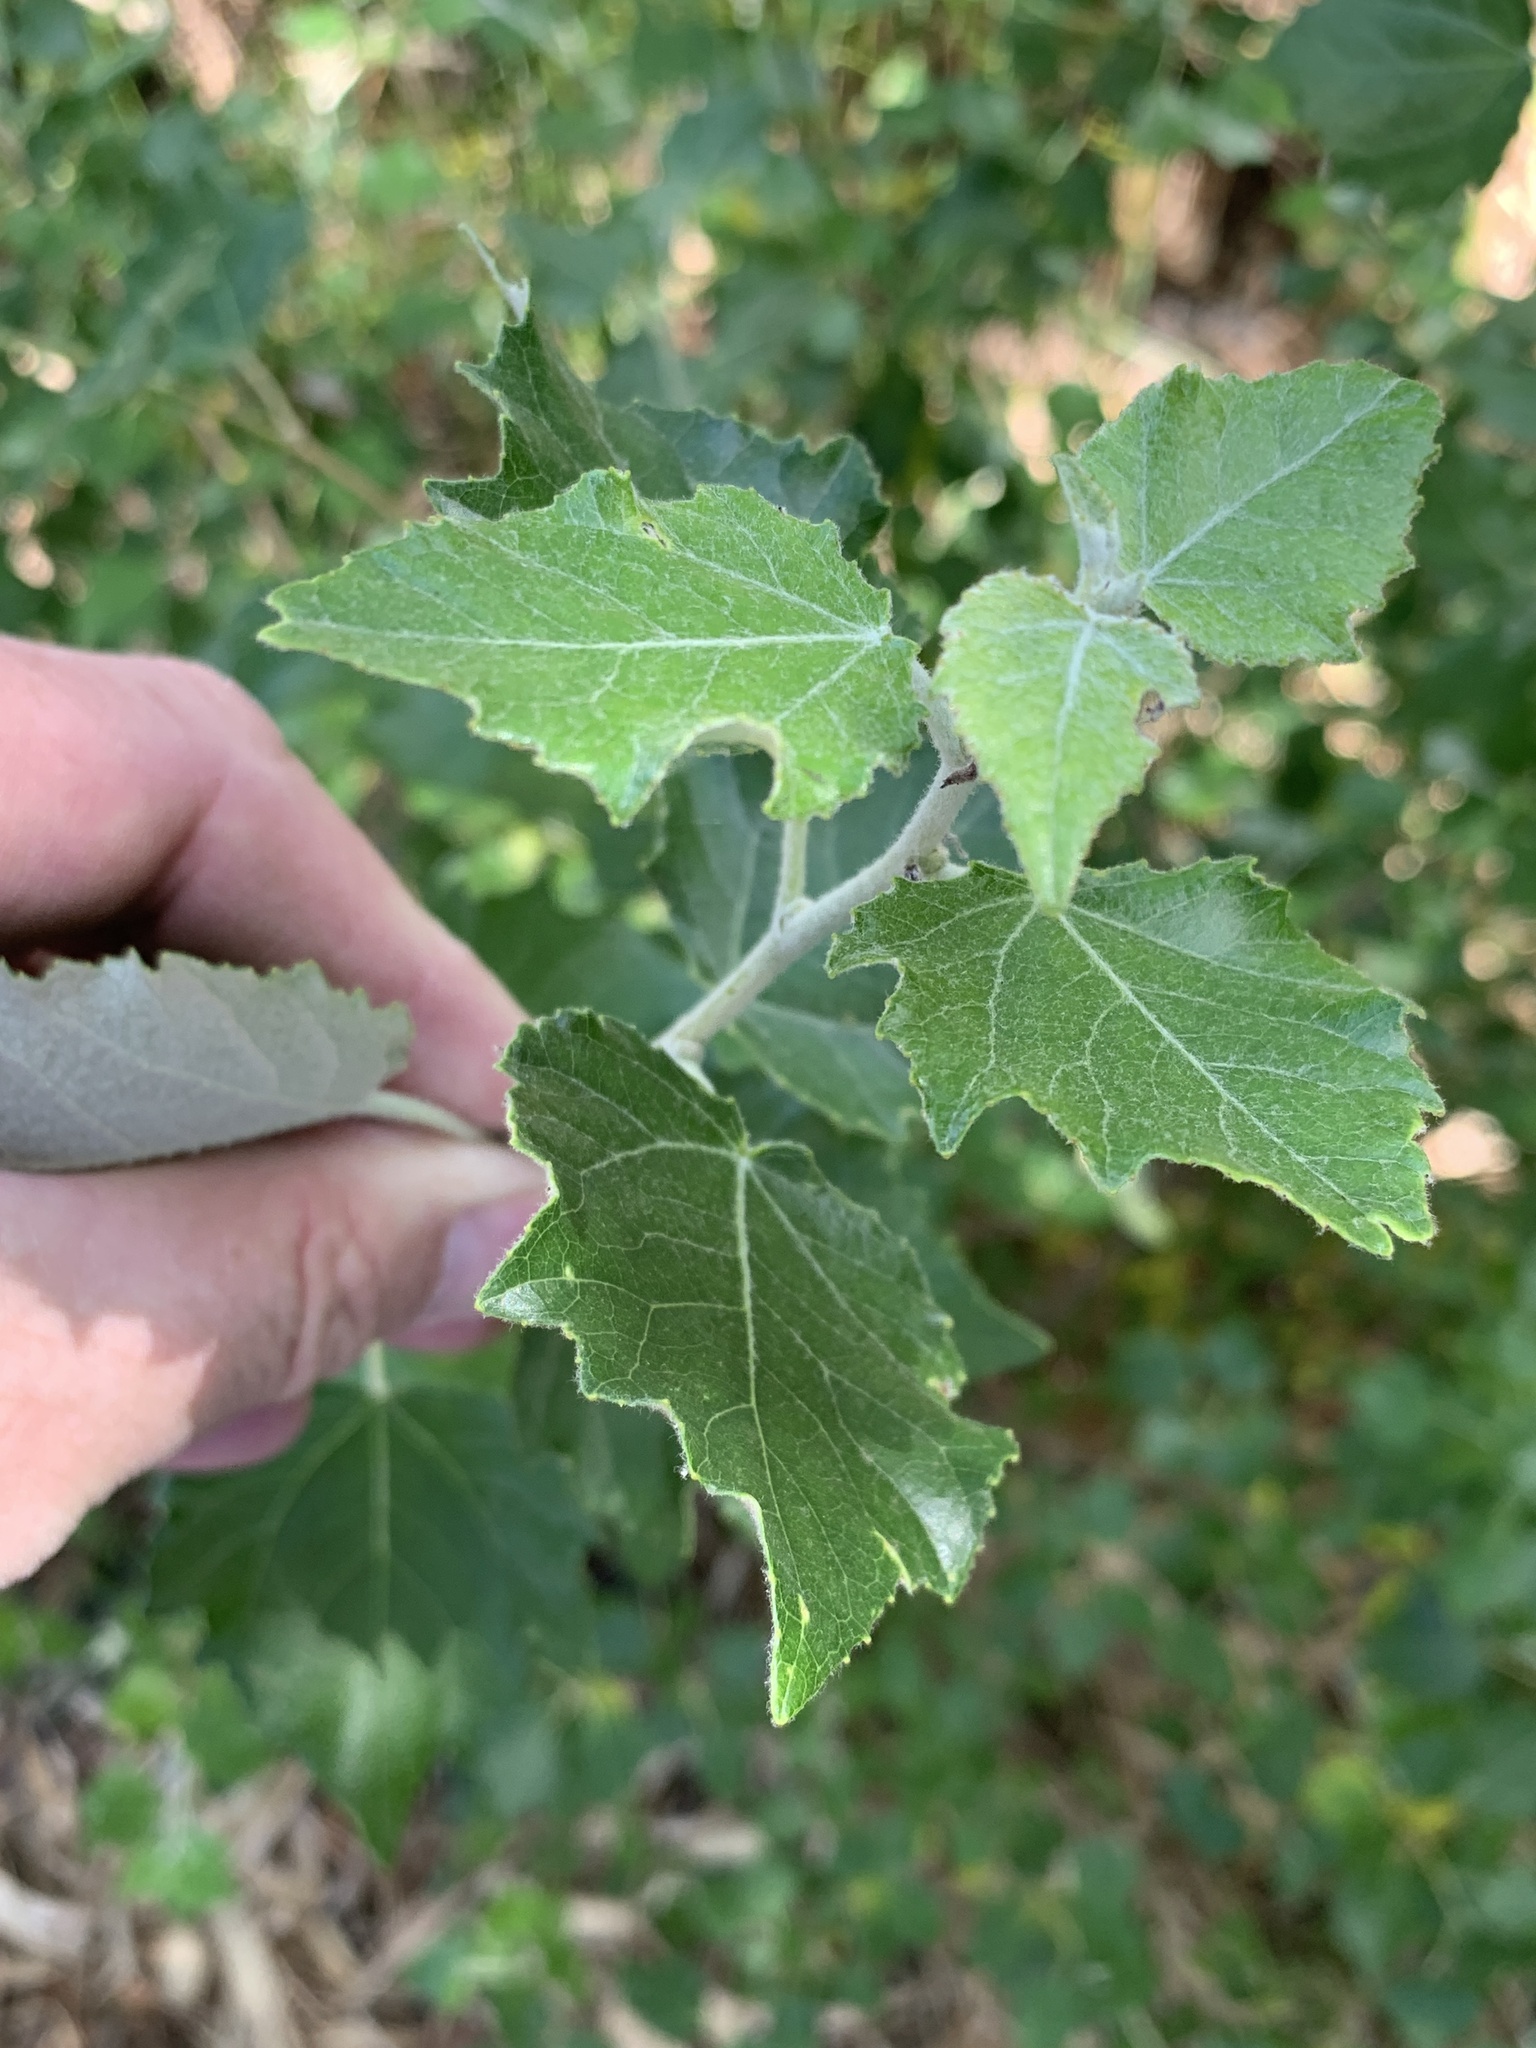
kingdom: Plantae
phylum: Tracheophyta
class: Magnoliopsida
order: Malpighiales
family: Salicaceae
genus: Populus
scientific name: Populus canescens
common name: Gray poplar
